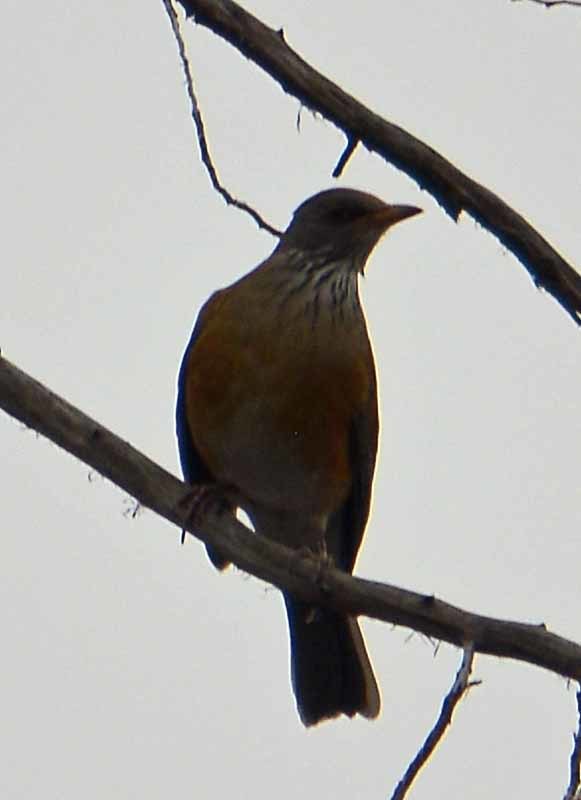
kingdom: Animalia
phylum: Chordata
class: Aves
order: Passeriformes
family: Turdidae
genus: Turdus
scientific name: Turdus rufopalliatus
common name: Rufous-backed robin
